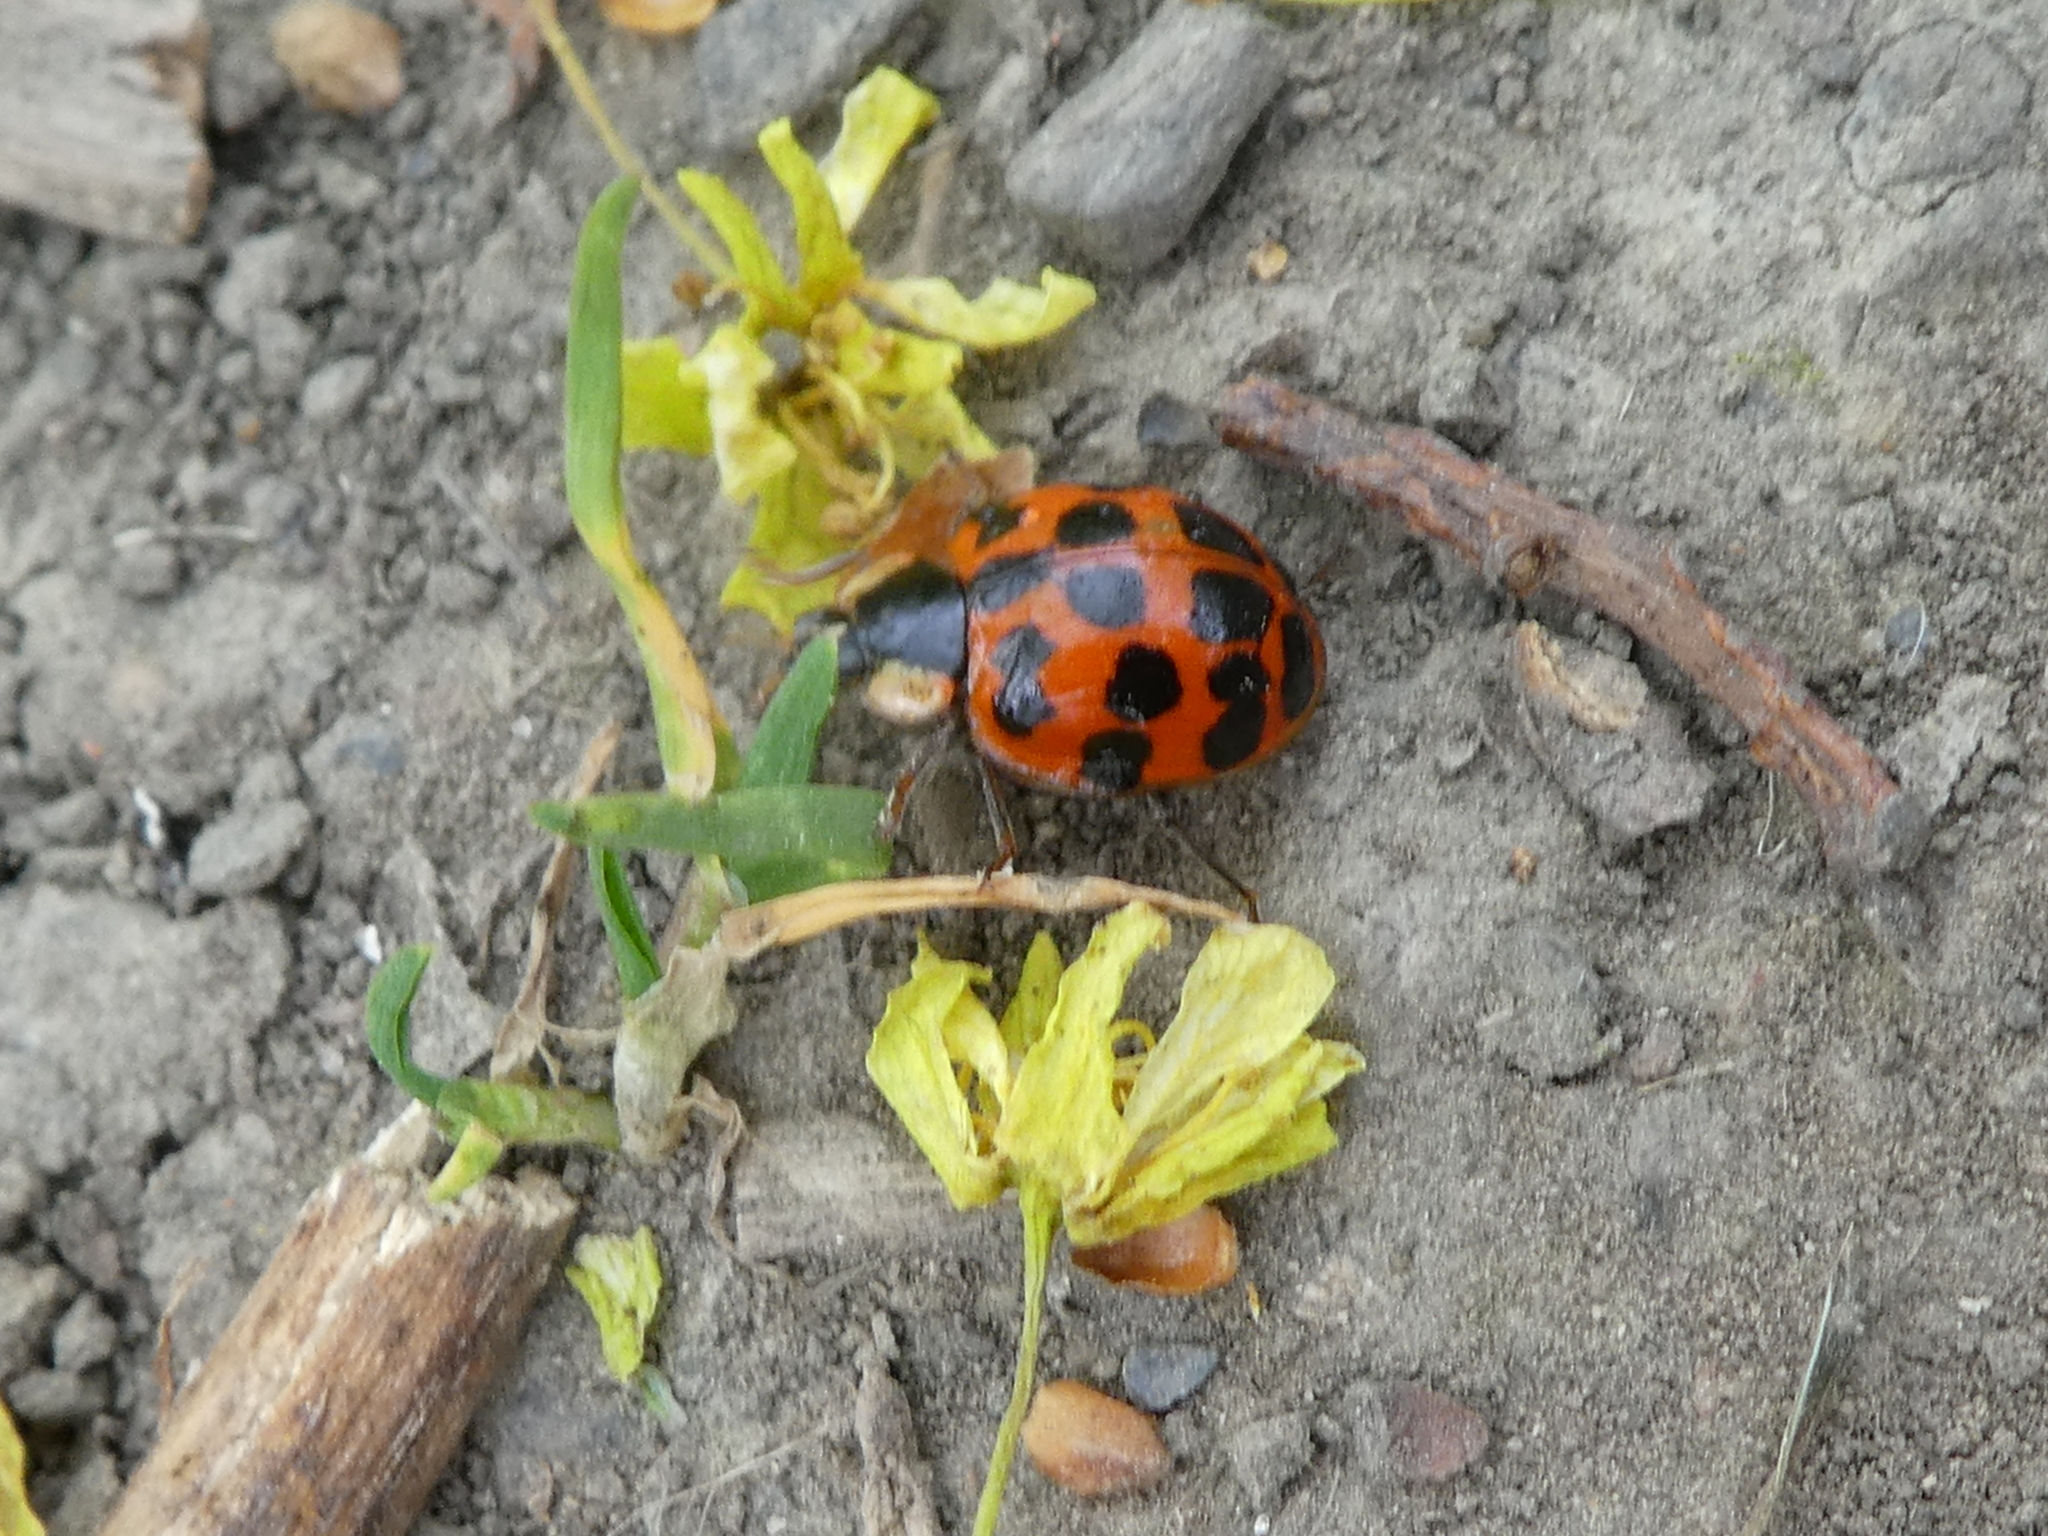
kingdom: Animalia
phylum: Arthropoda
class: Insecta
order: Coleoptera
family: Coccinellidae
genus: Harmonia
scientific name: Harmonia axyridis
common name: Harlequin ladybird
